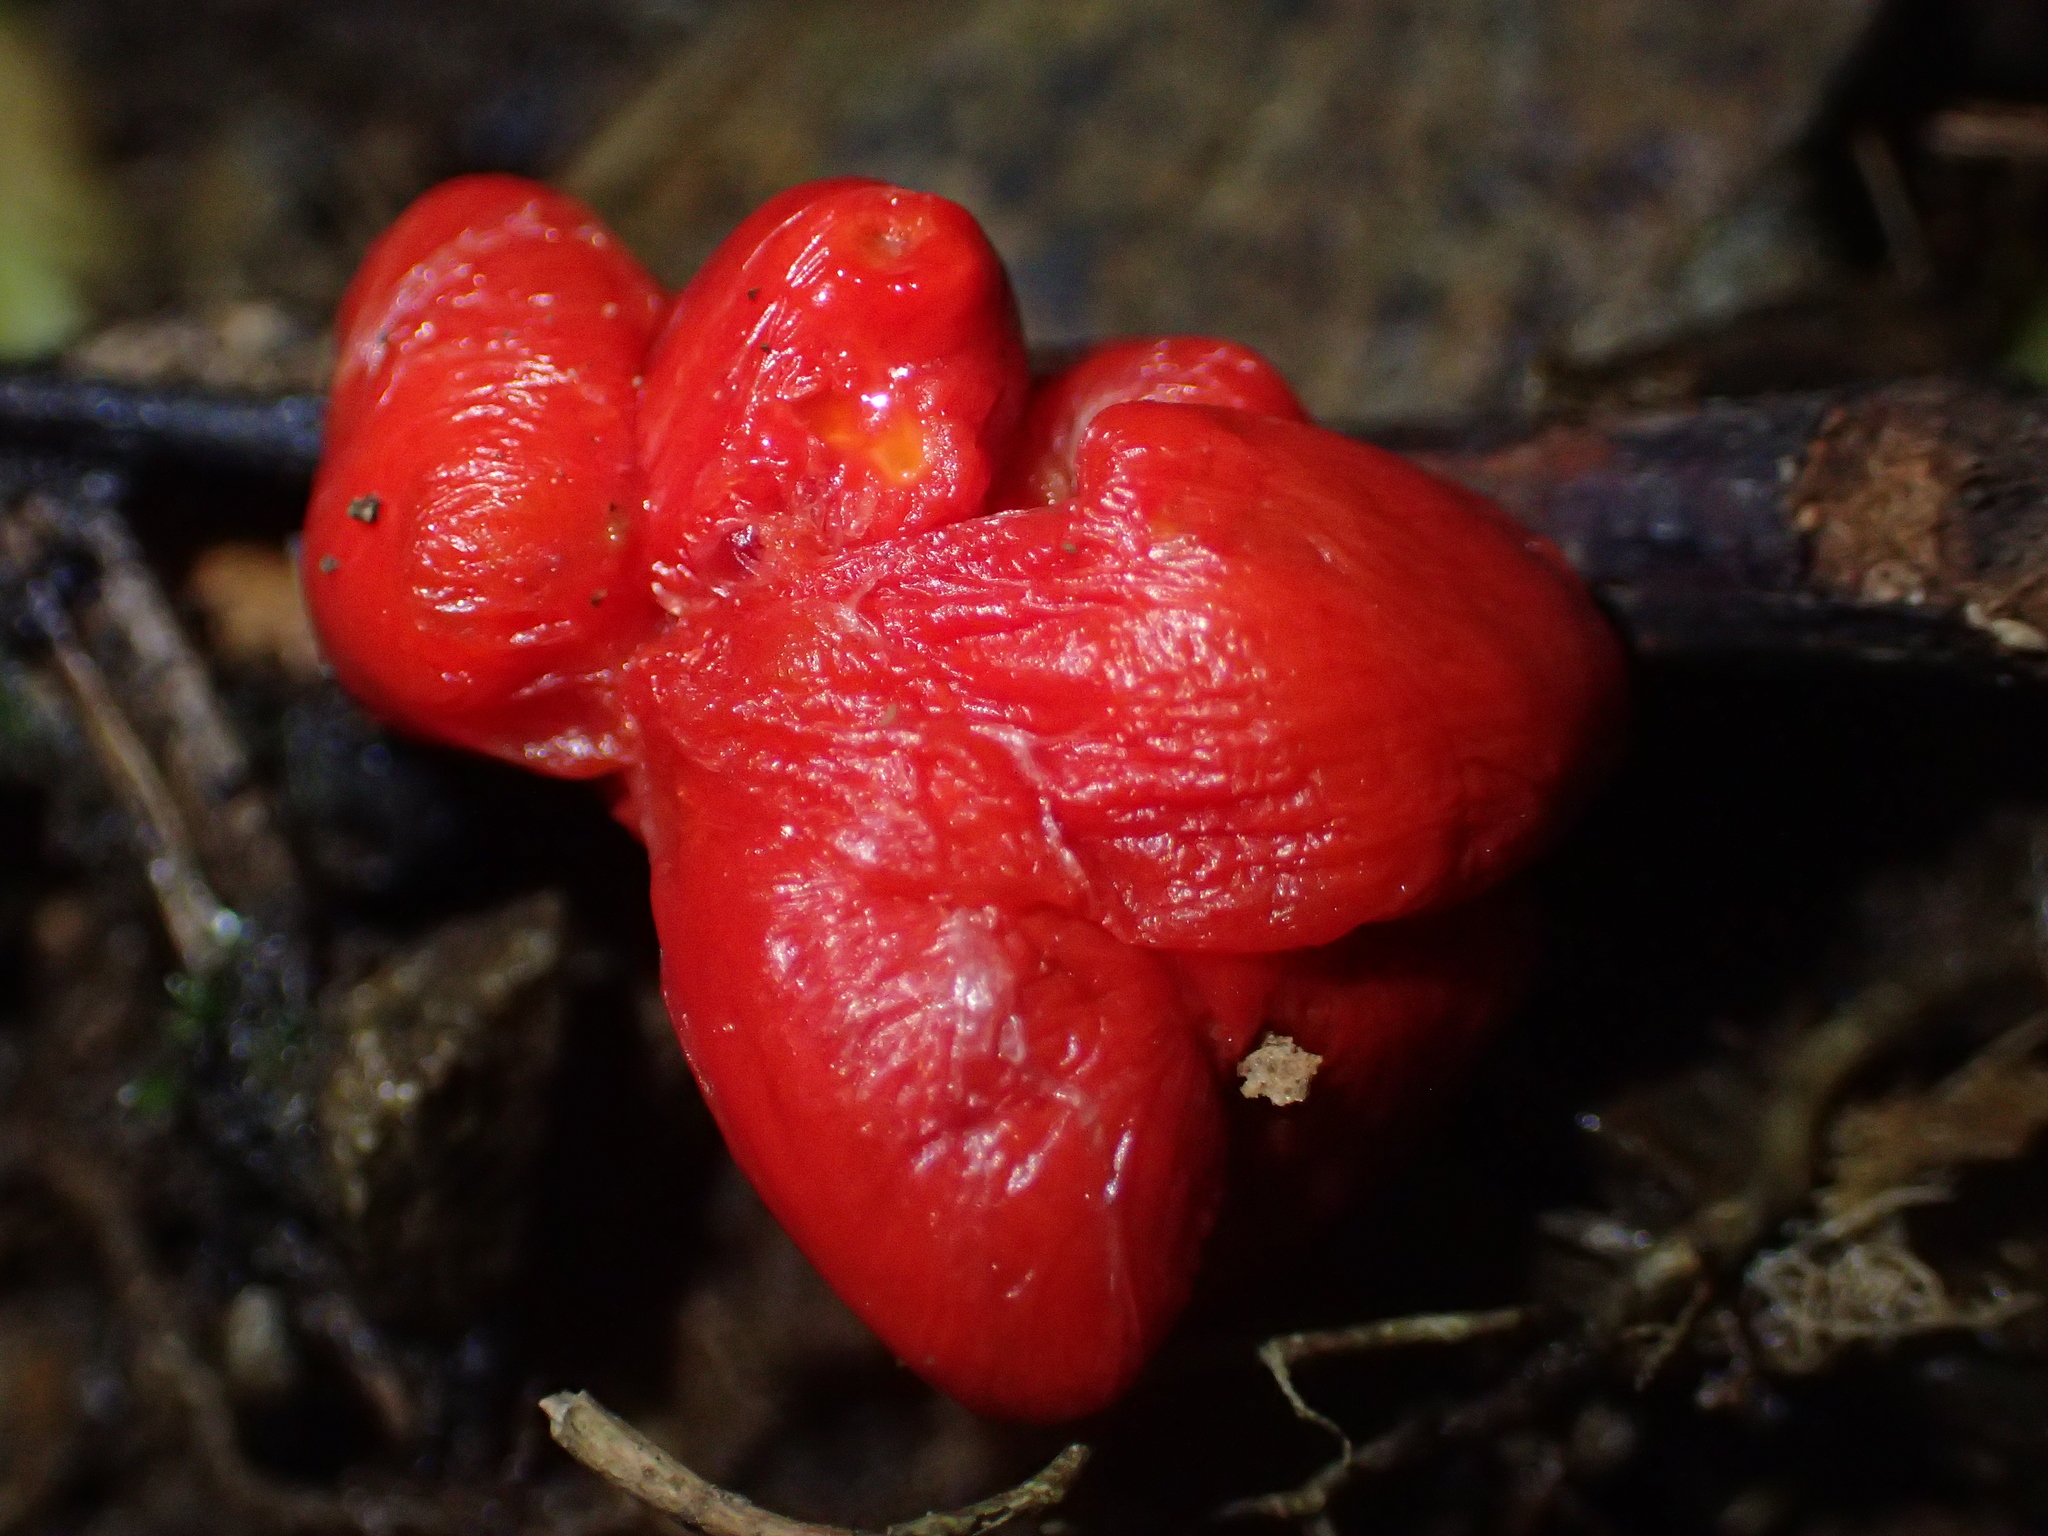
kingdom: Plantae
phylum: Tracheophyta
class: Magnoliopsida
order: Malpighiales
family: Passifloraceae
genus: Passiflora
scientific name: Passiflora tetrandra
